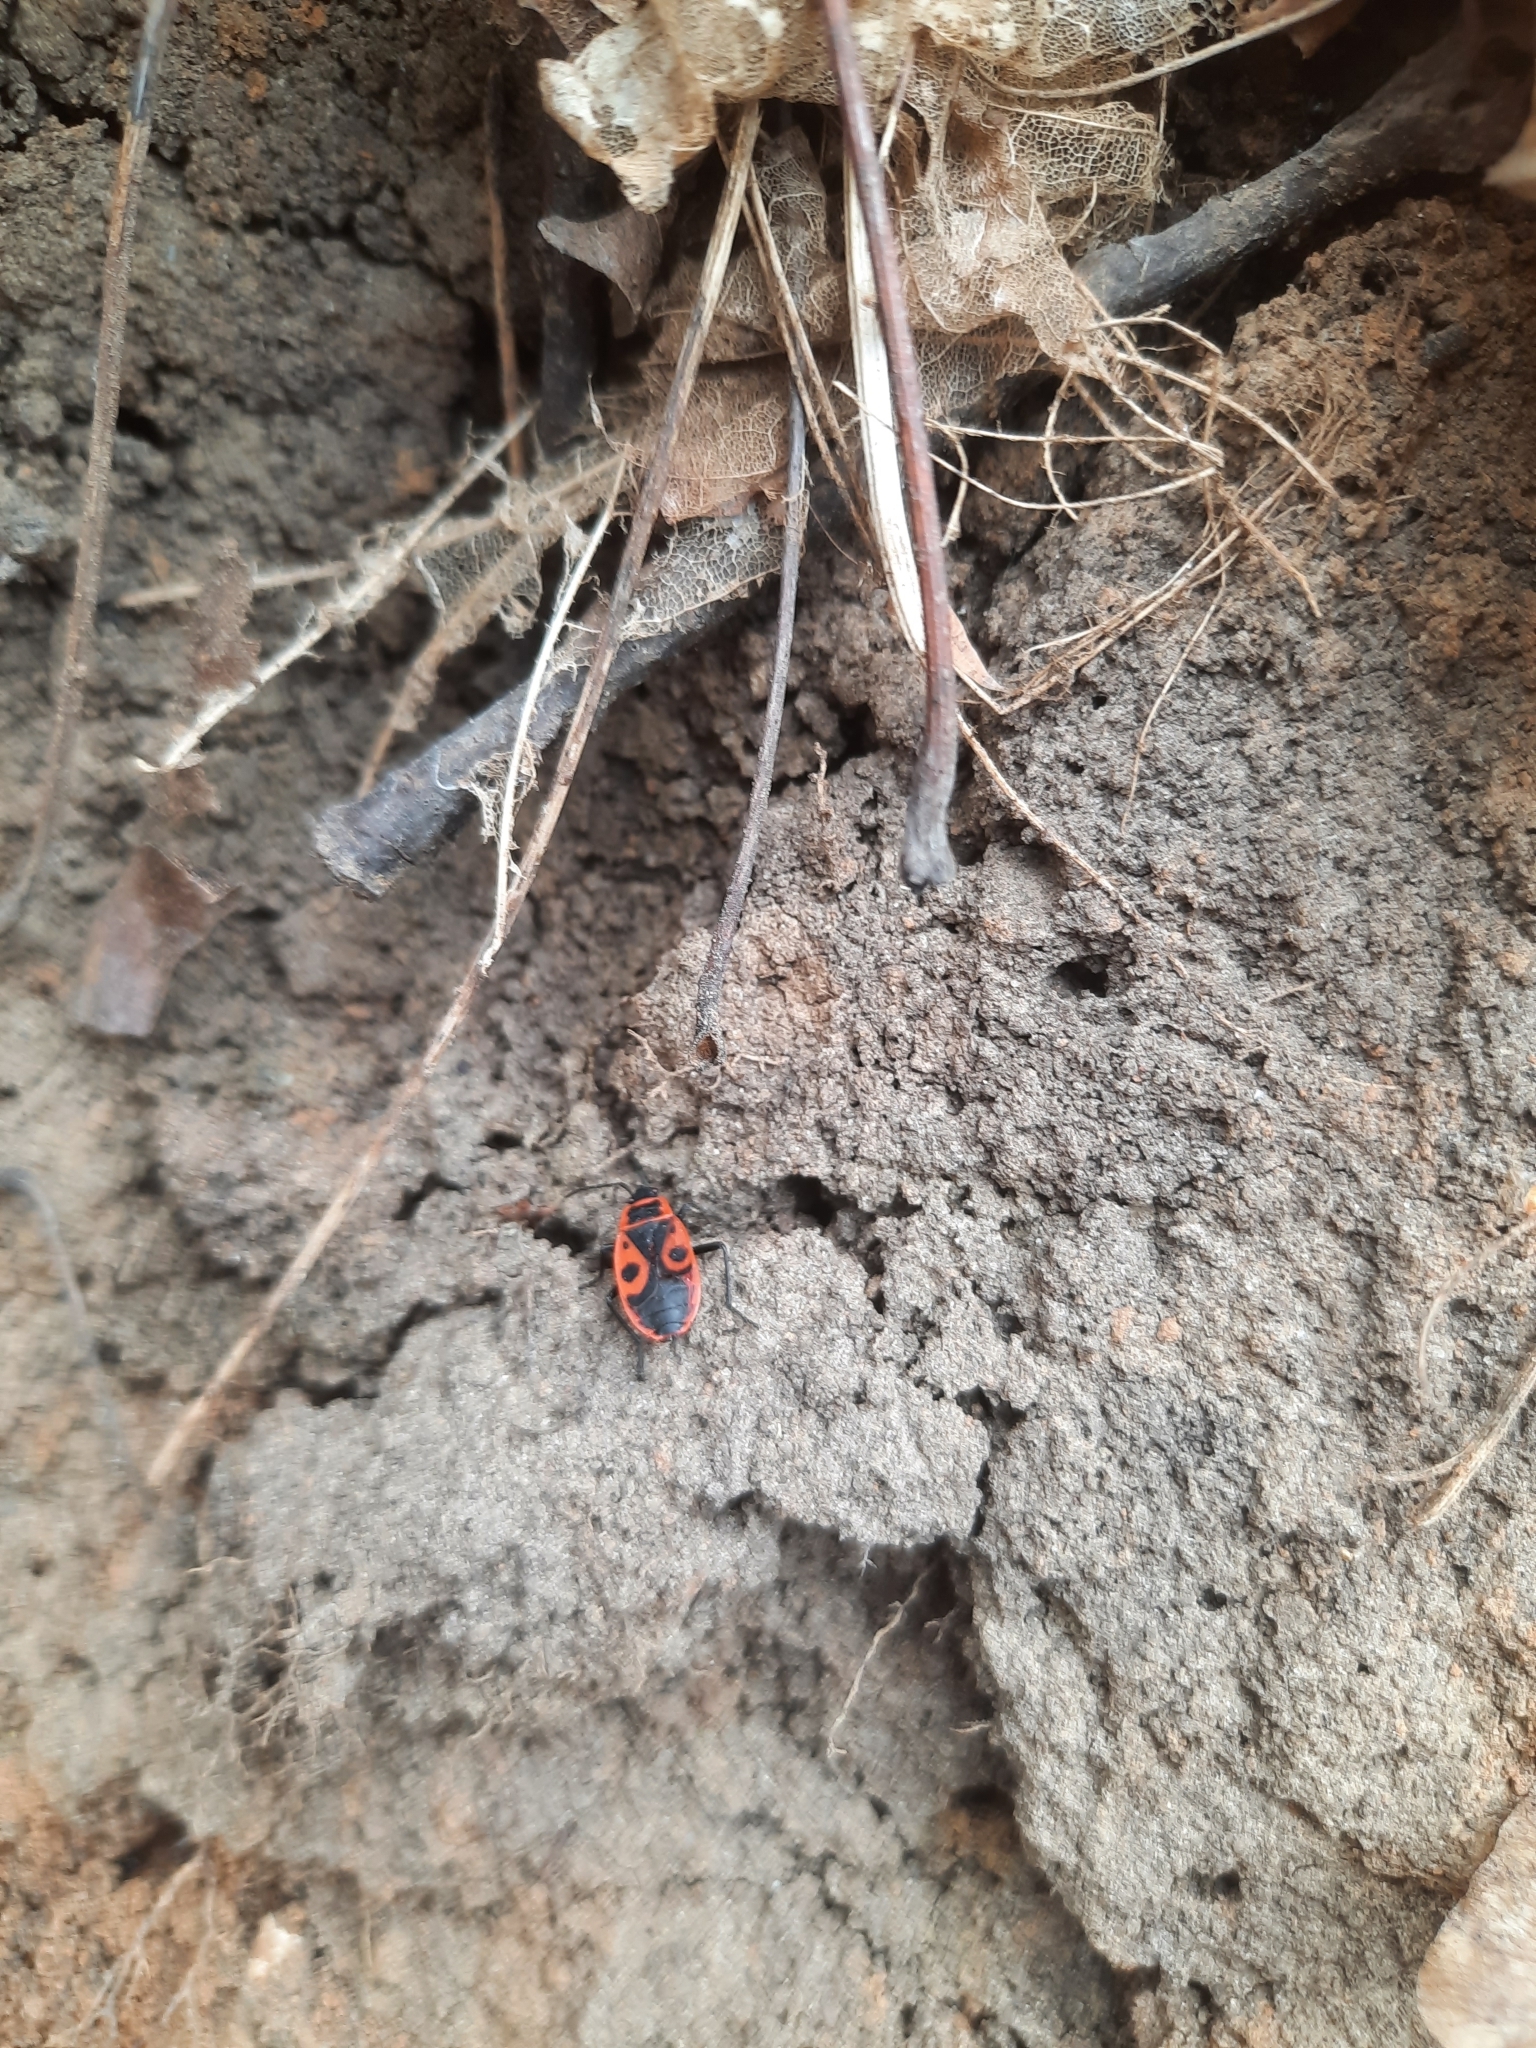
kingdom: Animalia
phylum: Arthropoda
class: Insecta
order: Hemiptera
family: Pyrrhocoridae
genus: Pyrrhocoris
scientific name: Pyrrhocoris apterus
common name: Firebug
